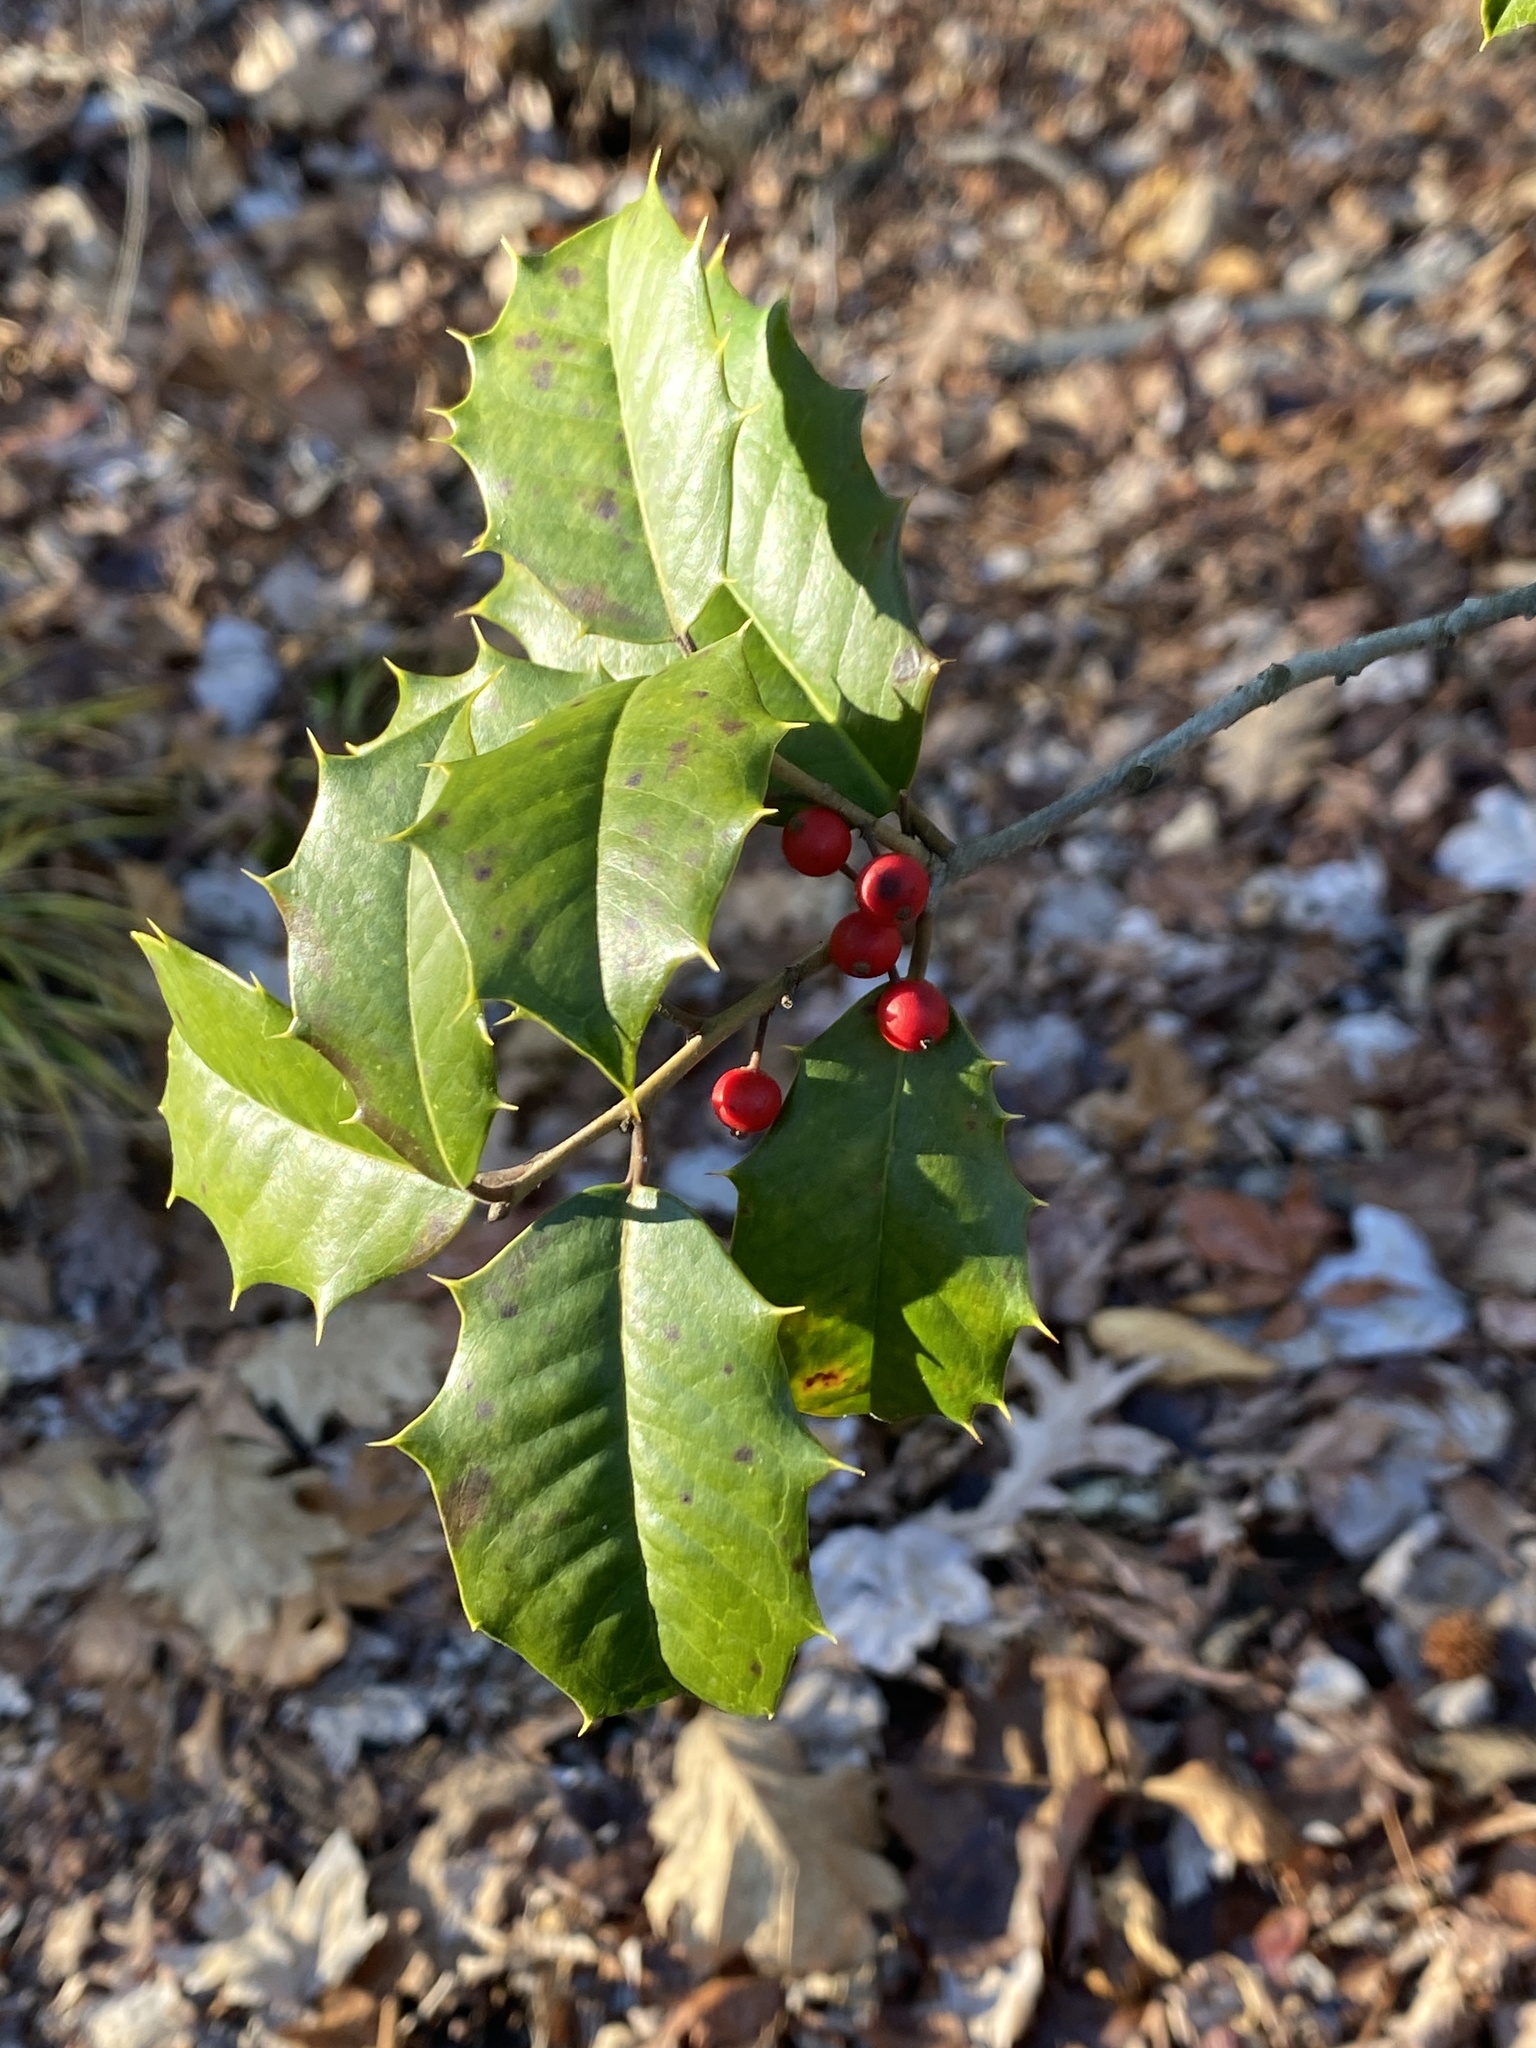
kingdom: Plantae
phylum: Tracheophyta
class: Magnoliopsida
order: Aquifoliales
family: Aquifoliaceae
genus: Ilex
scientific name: Ilex opaca
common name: American holly
